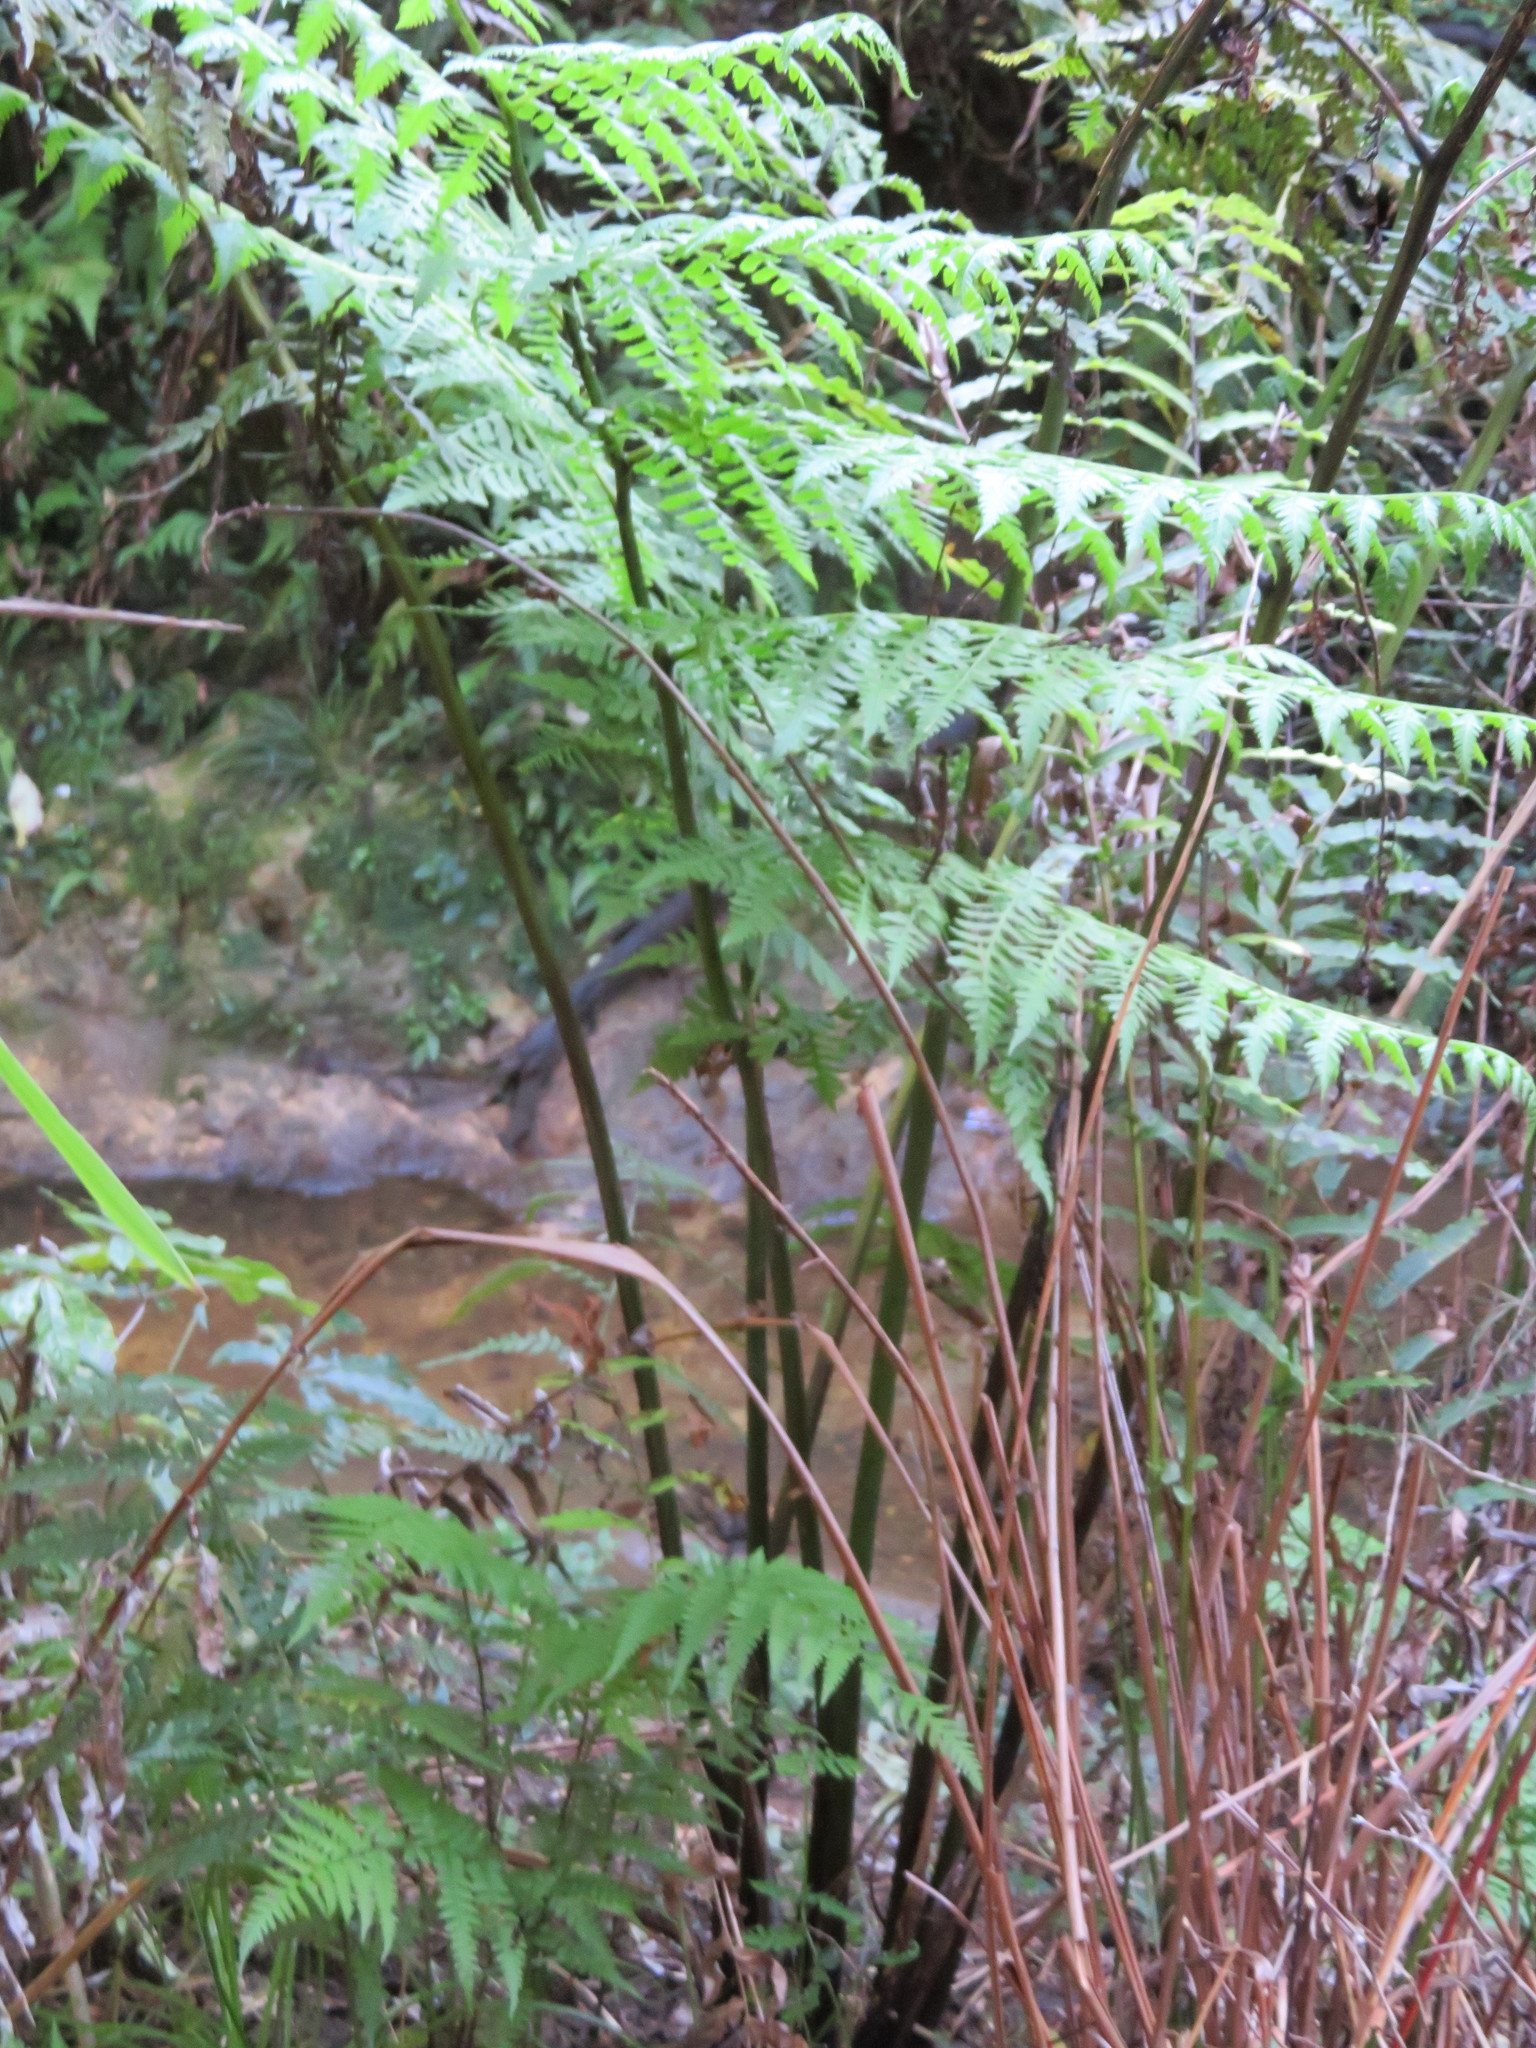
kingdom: Plantae
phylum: Tracheophyta
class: Polypodiopsida
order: Polypodiales
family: Athyriaceae
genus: Diplazium
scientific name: Diplazium australe
